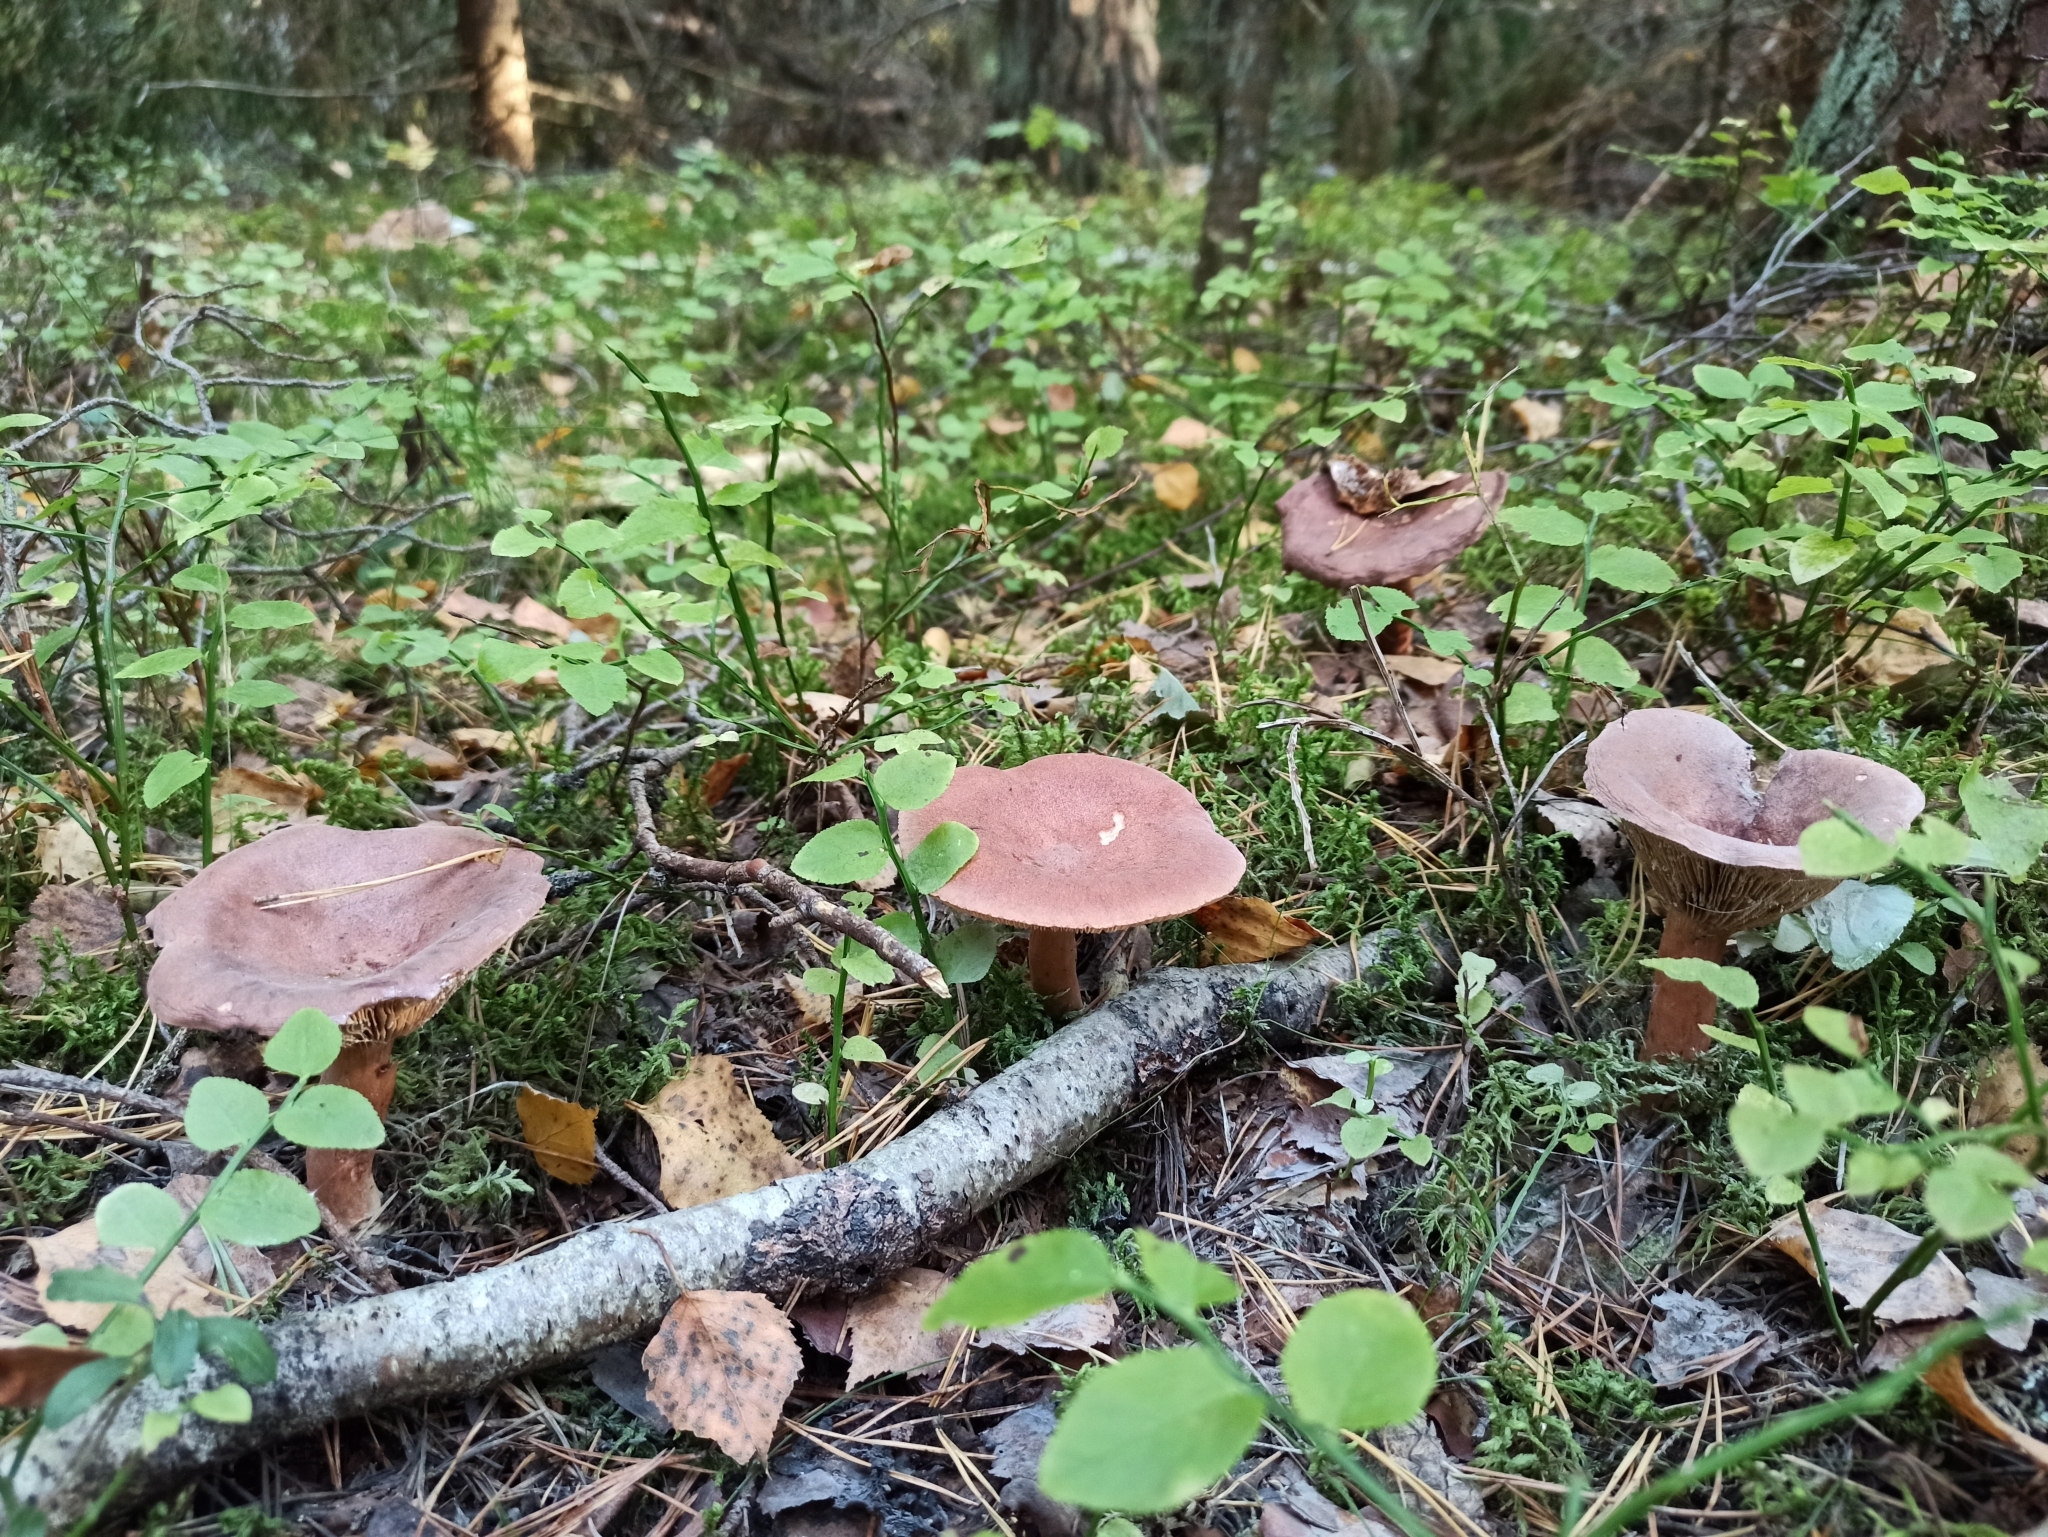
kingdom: Fungi
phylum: Basidiomycota
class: Agaricomycetes
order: Russulales
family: Russulaceae
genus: Lactarius
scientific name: Lactarius rufus
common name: Rufous milk-cap
